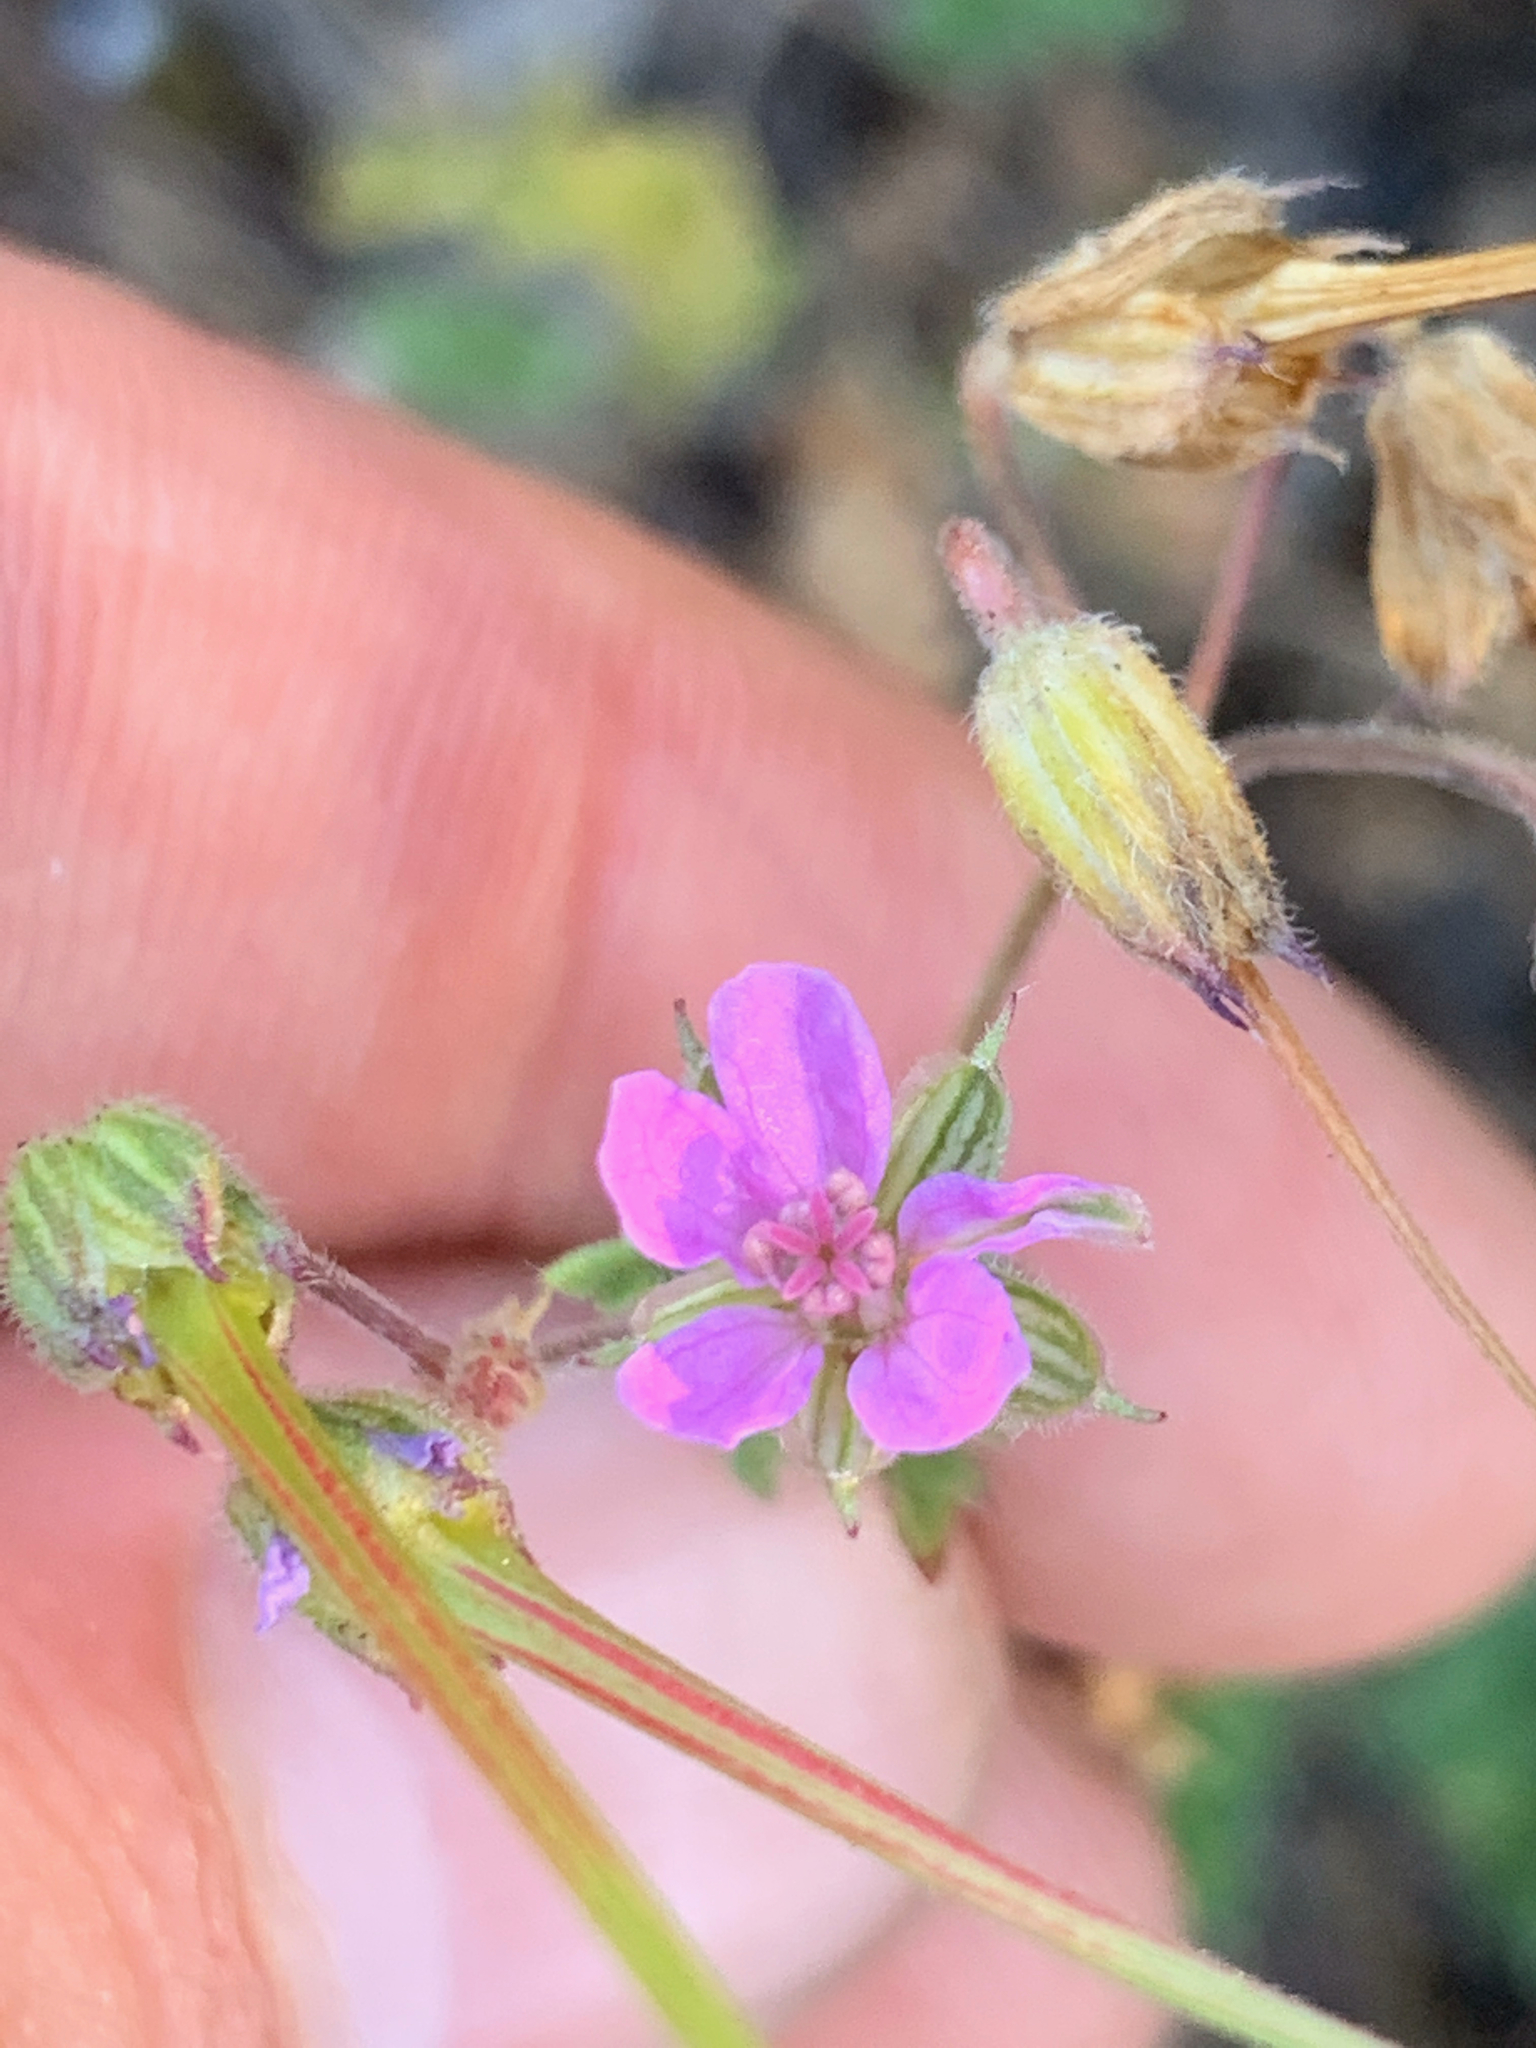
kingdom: Plantae
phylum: Tracheophyta
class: Magnoliopsida
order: Geraniales
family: Geraniaceae
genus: Erodium
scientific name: Erodium malacoides
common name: Soft stork's-bill
